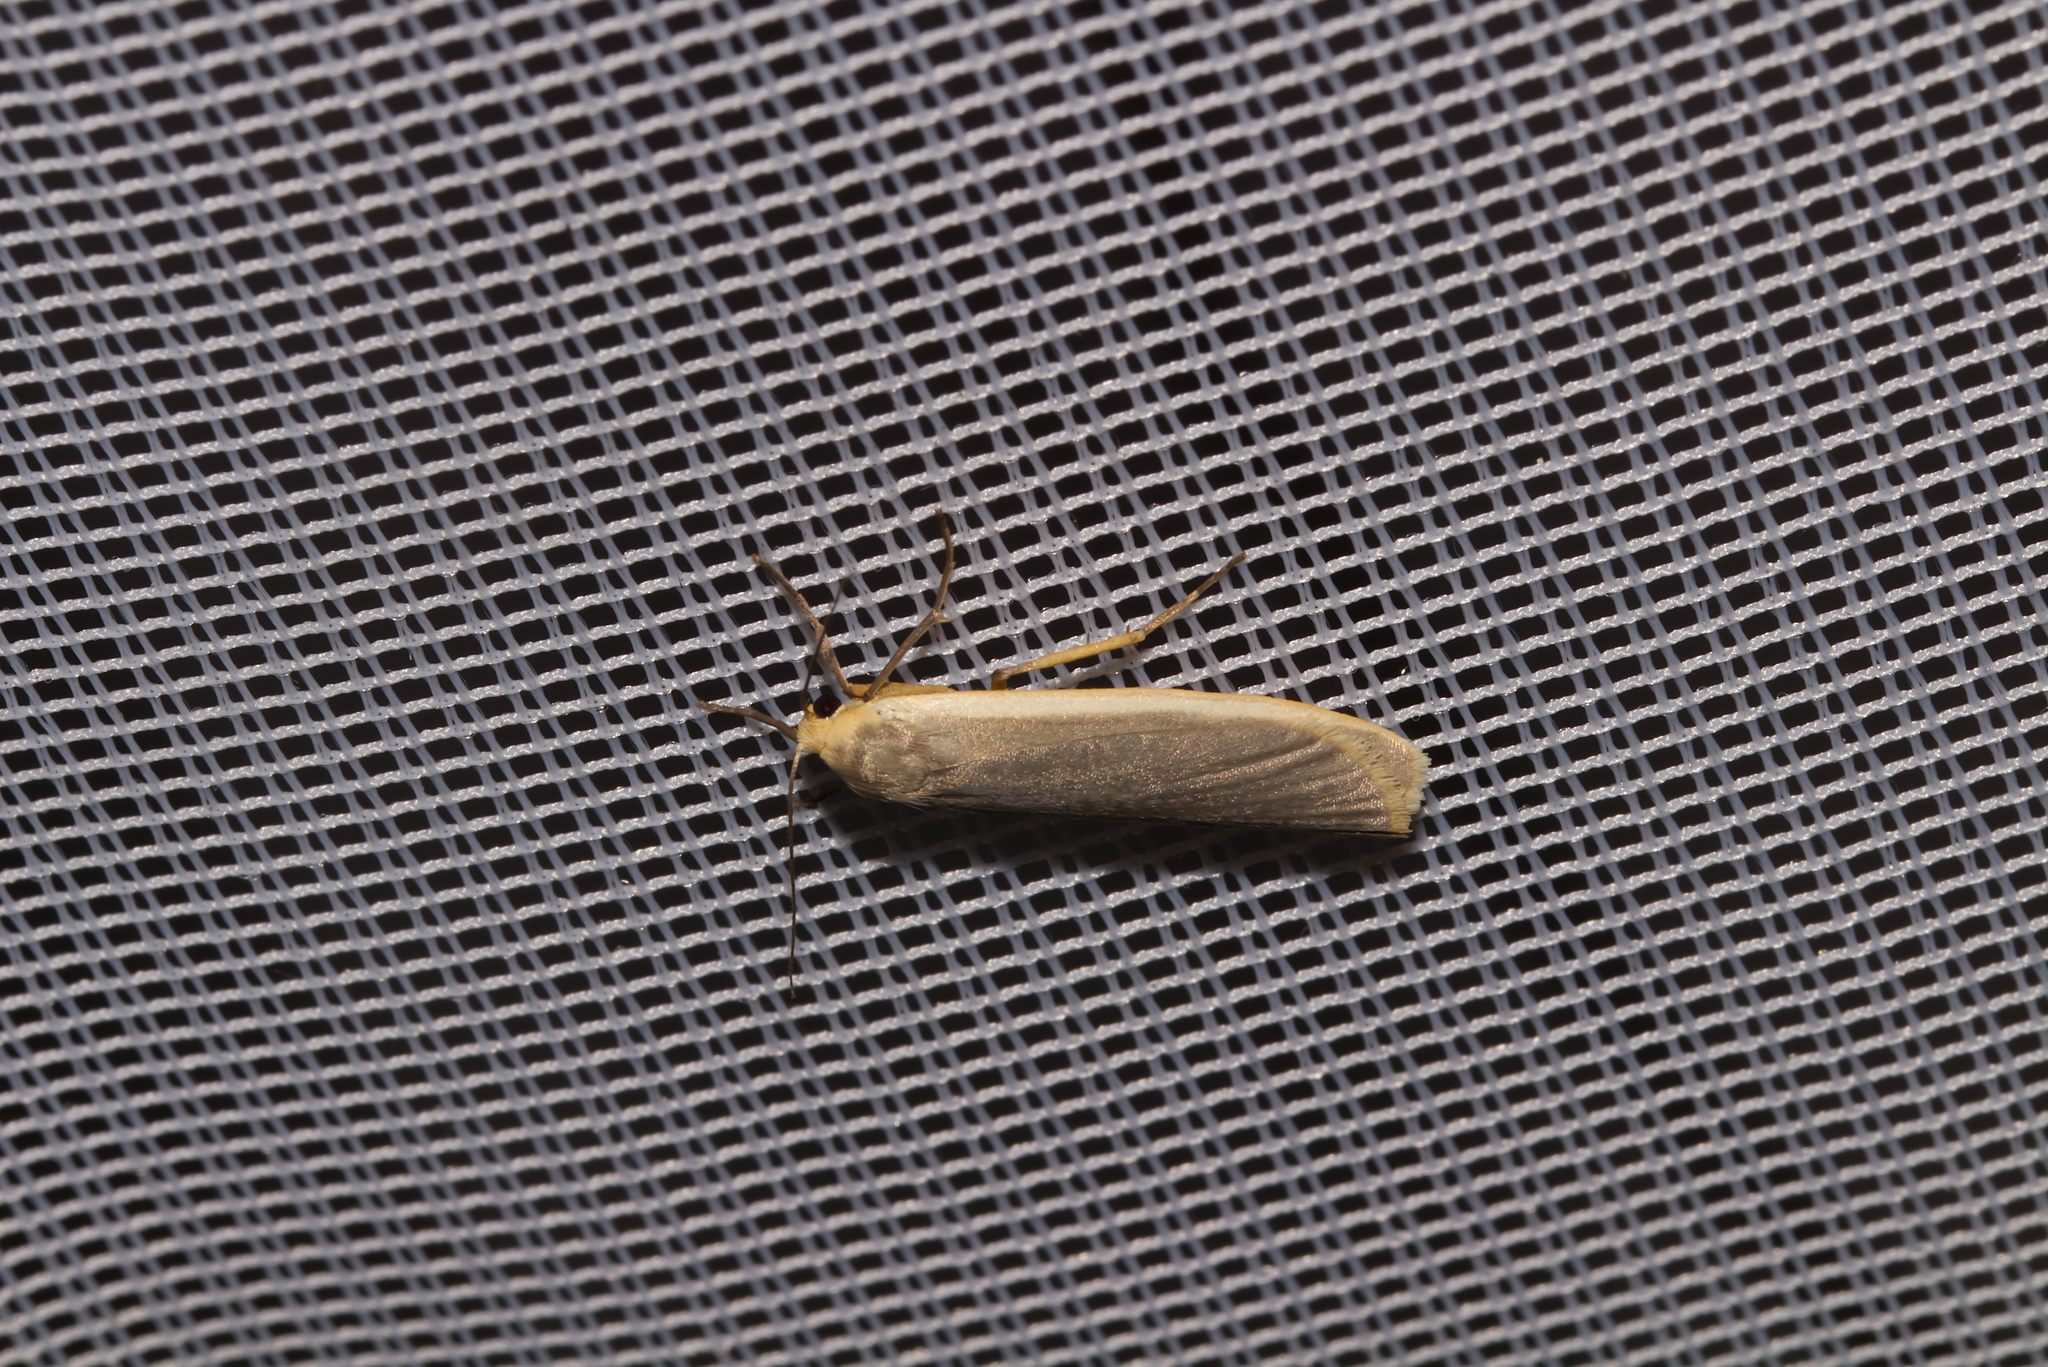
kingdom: Animalia
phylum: Arthropoda
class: Insecta
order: Lepidoptera
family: Erebidae
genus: Nyea
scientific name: Nyea lurideola
